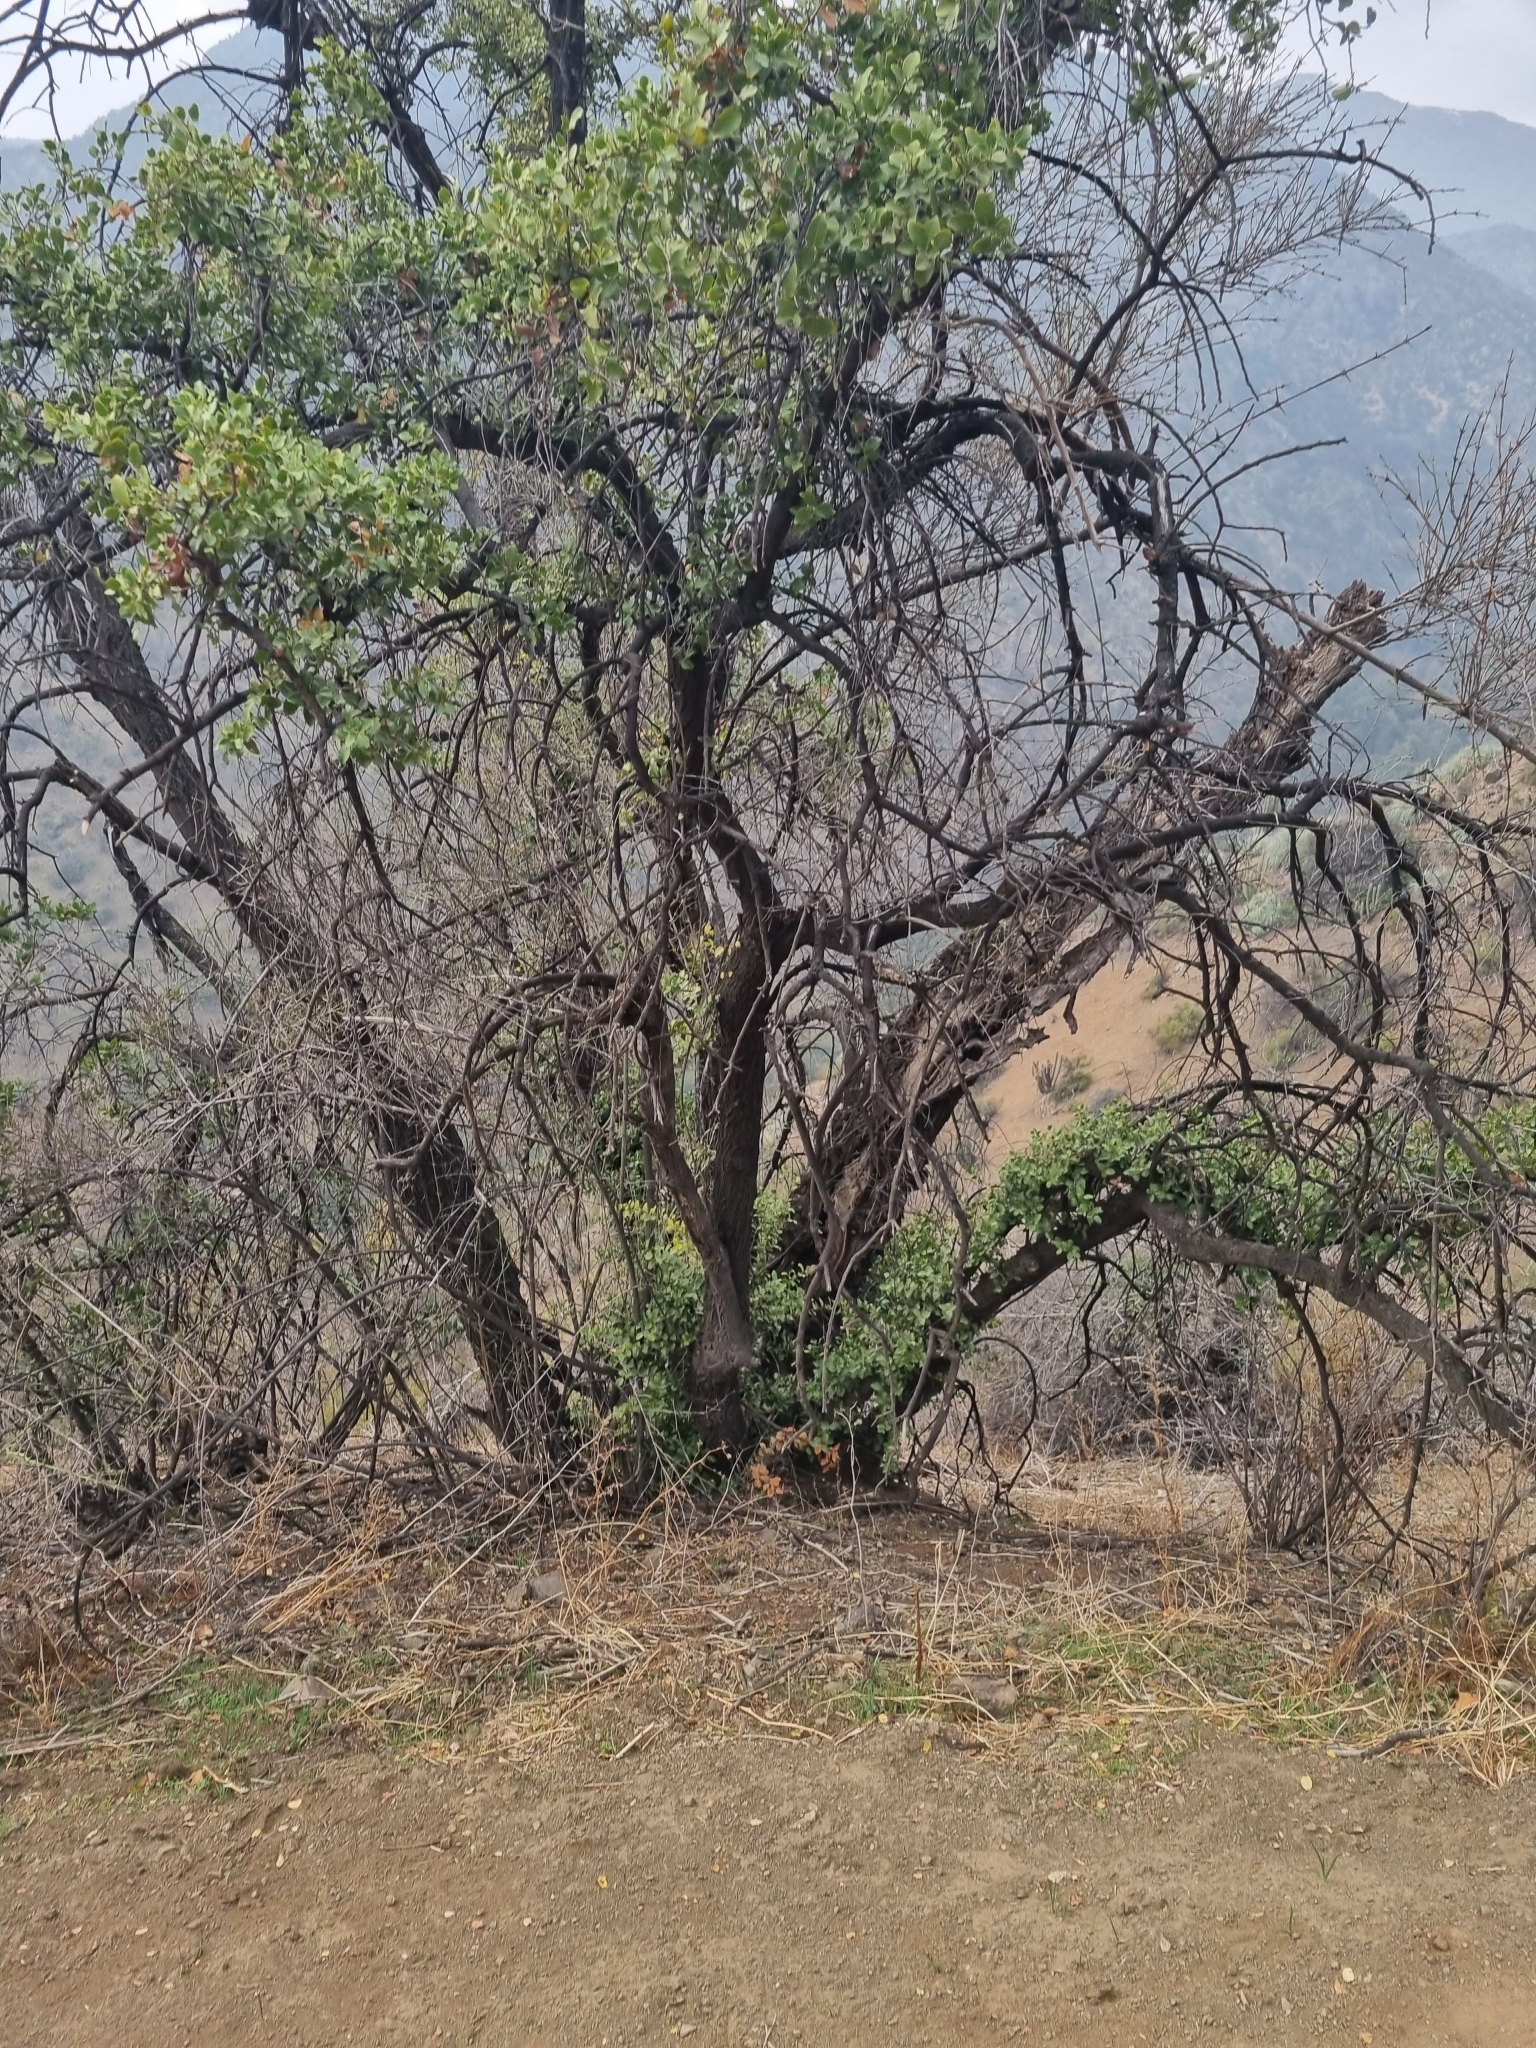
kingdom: Plantae
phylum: Tracheophyta
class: Magnoliopsida
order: Fabales
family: Quillajaceae
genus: Quillaja
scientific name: Quillaja saponaria
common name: Murillo's-bark
